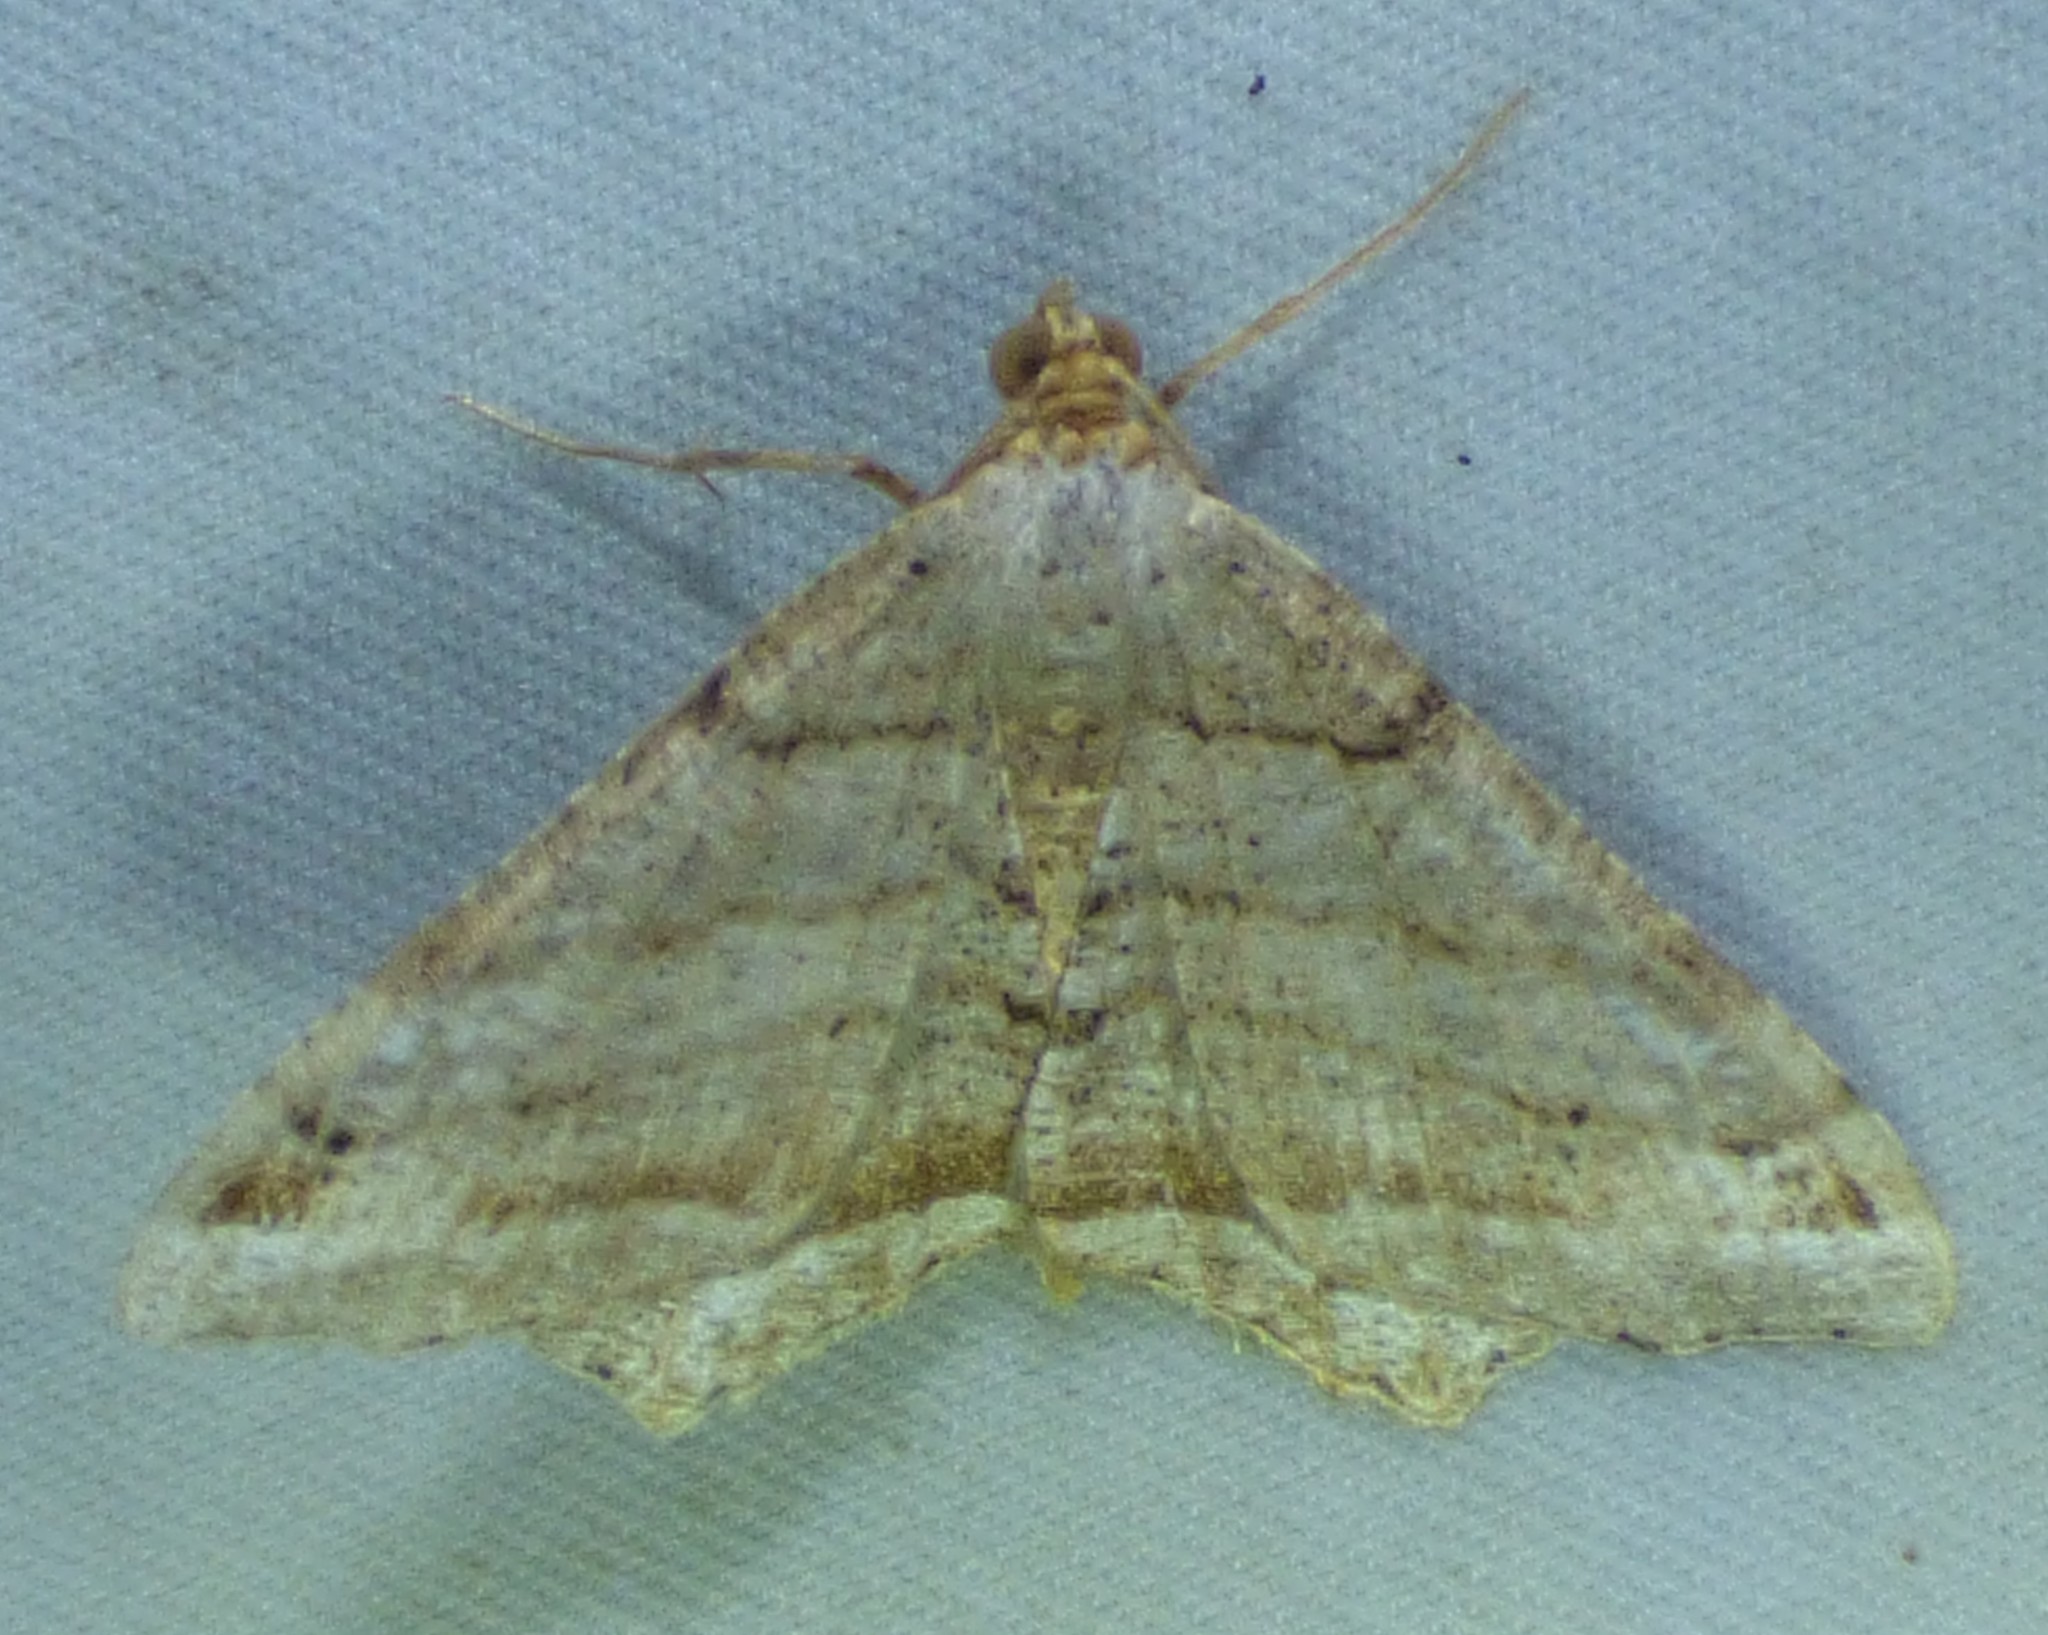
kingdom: Animalia
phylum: Arthropoda
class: Insecta
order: Lepidoptera
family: Geometridae
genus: Macaria
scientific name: Macaria multilineata
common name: Many-lined angle
